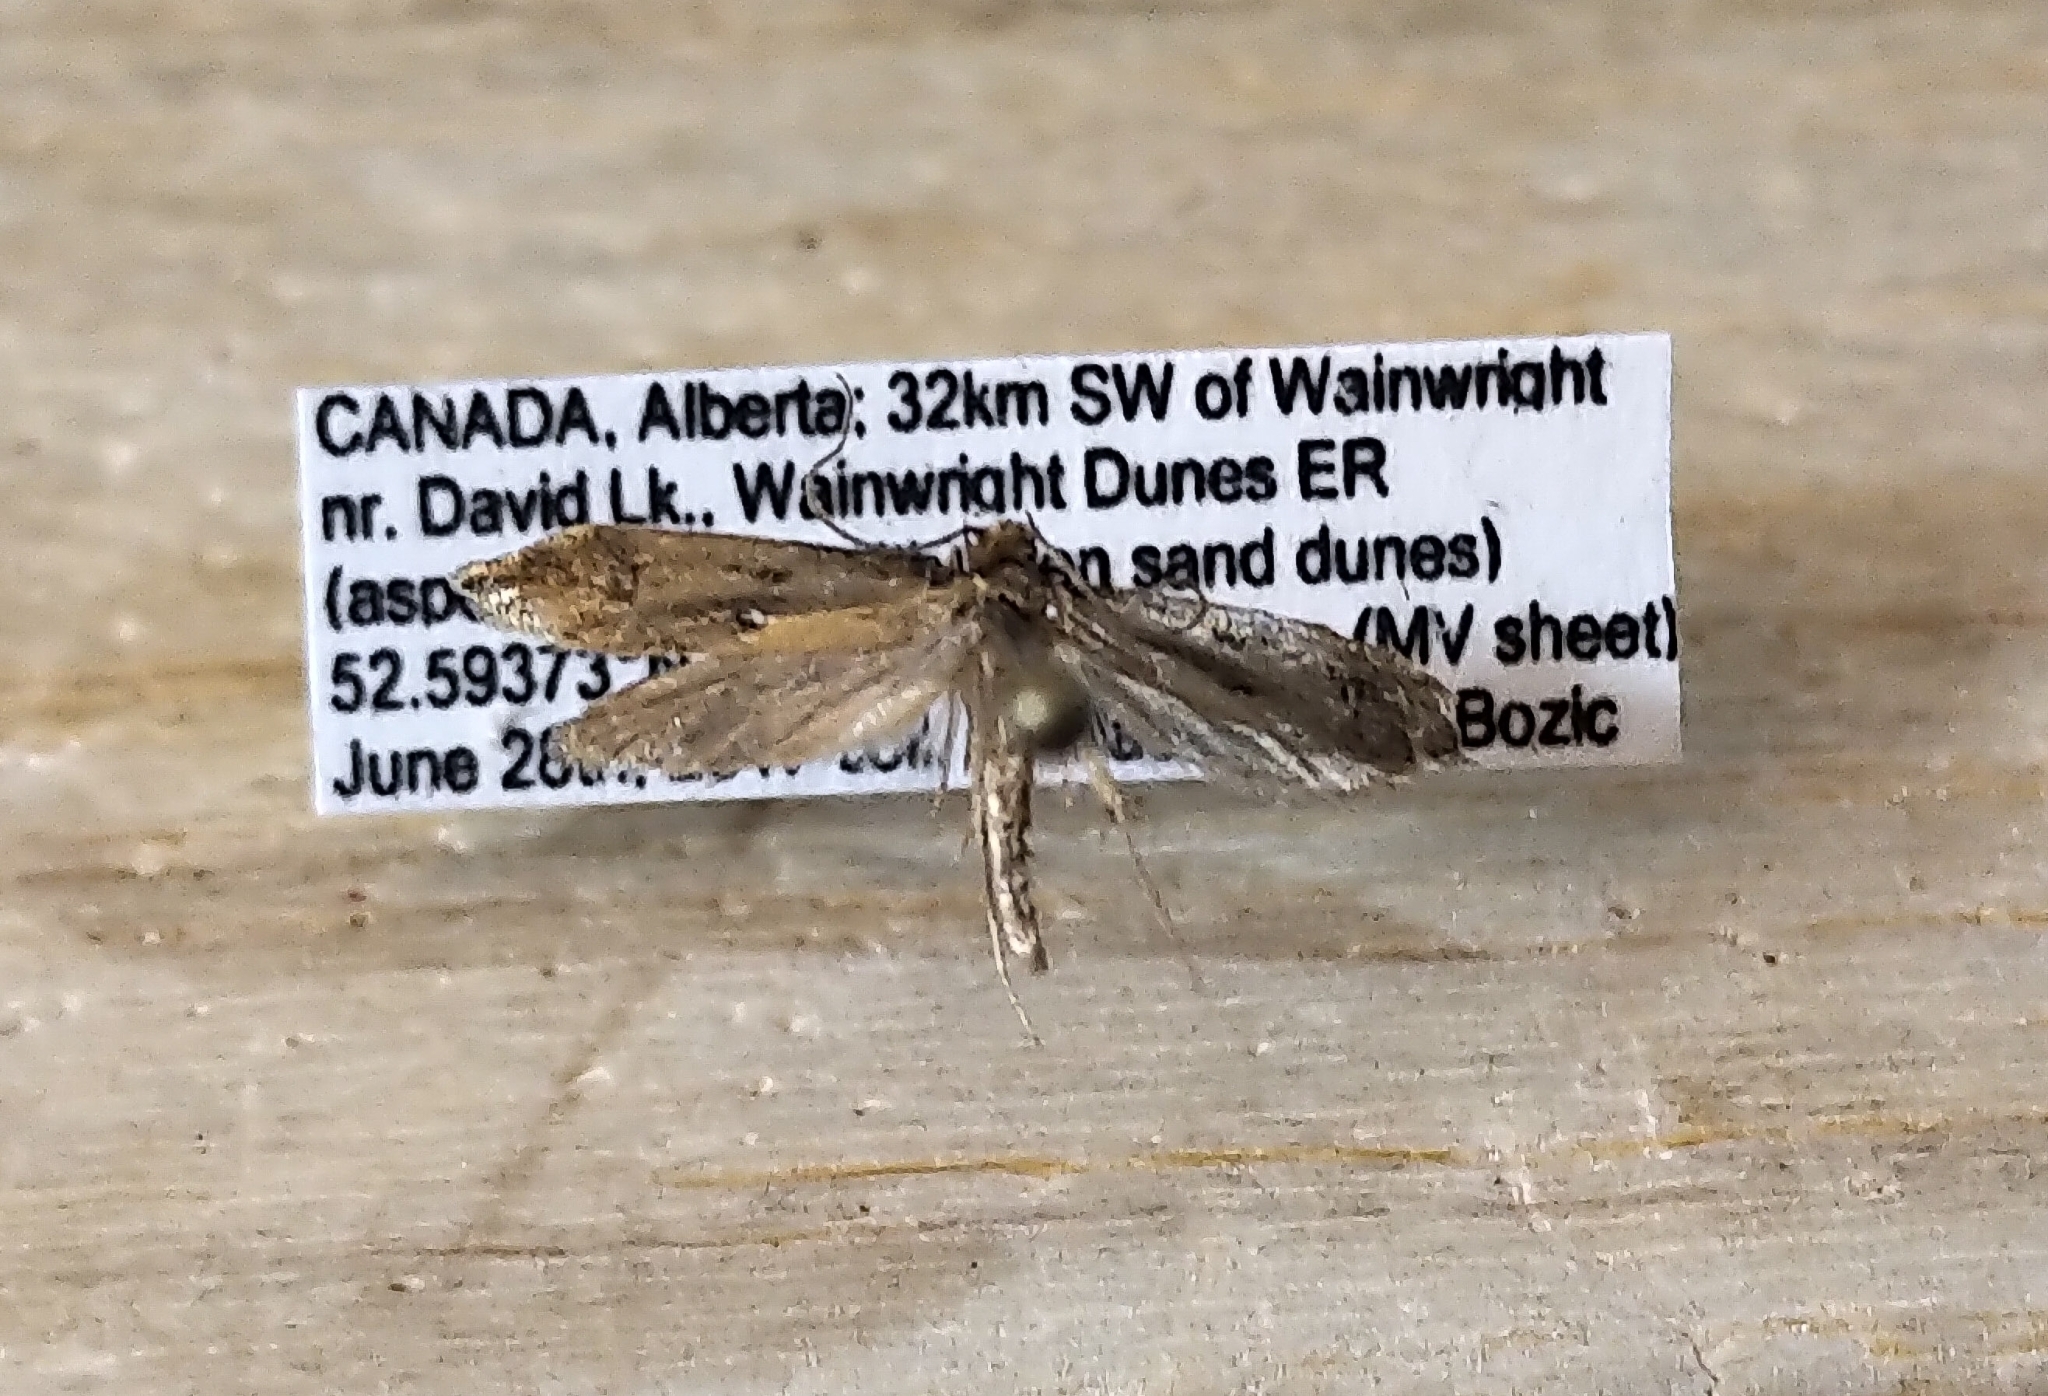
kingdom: Animalia
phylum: Arthropoda
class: Insecta
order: Lepidoptera
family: Tineidae
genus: Tinea
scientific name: Tinea irrepta
